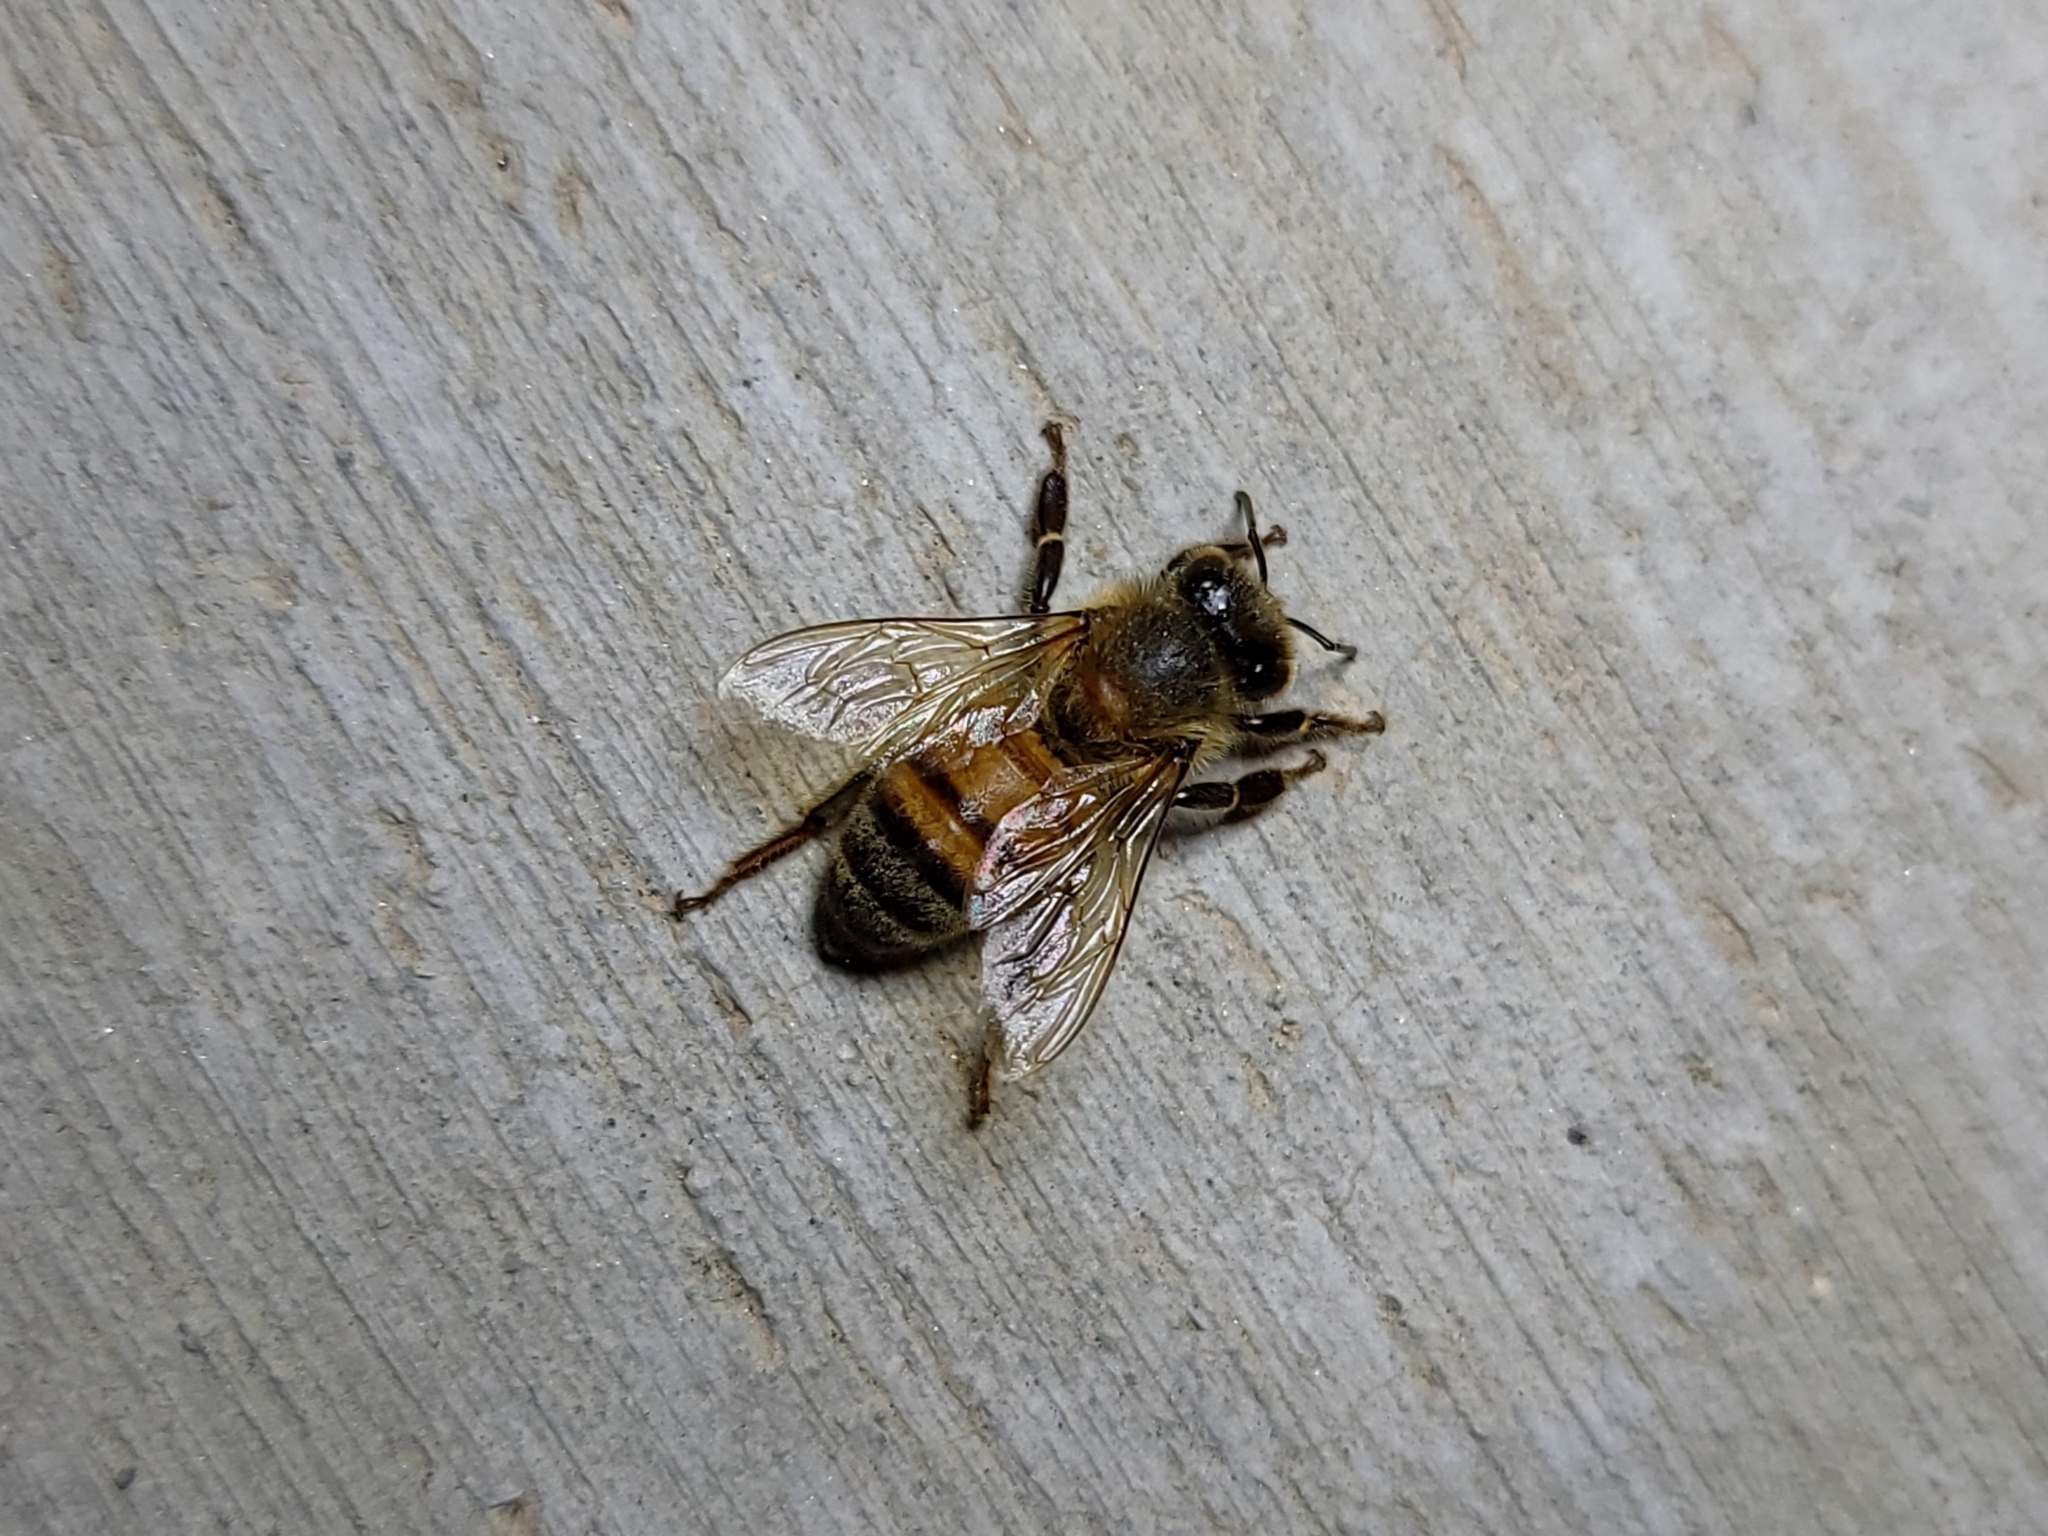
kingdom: Animalia
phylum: Arthropoda
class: Insecta
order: Hymenoptera
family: Apidae
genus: Apis
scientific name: Apis mellifera
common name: Honey bee
